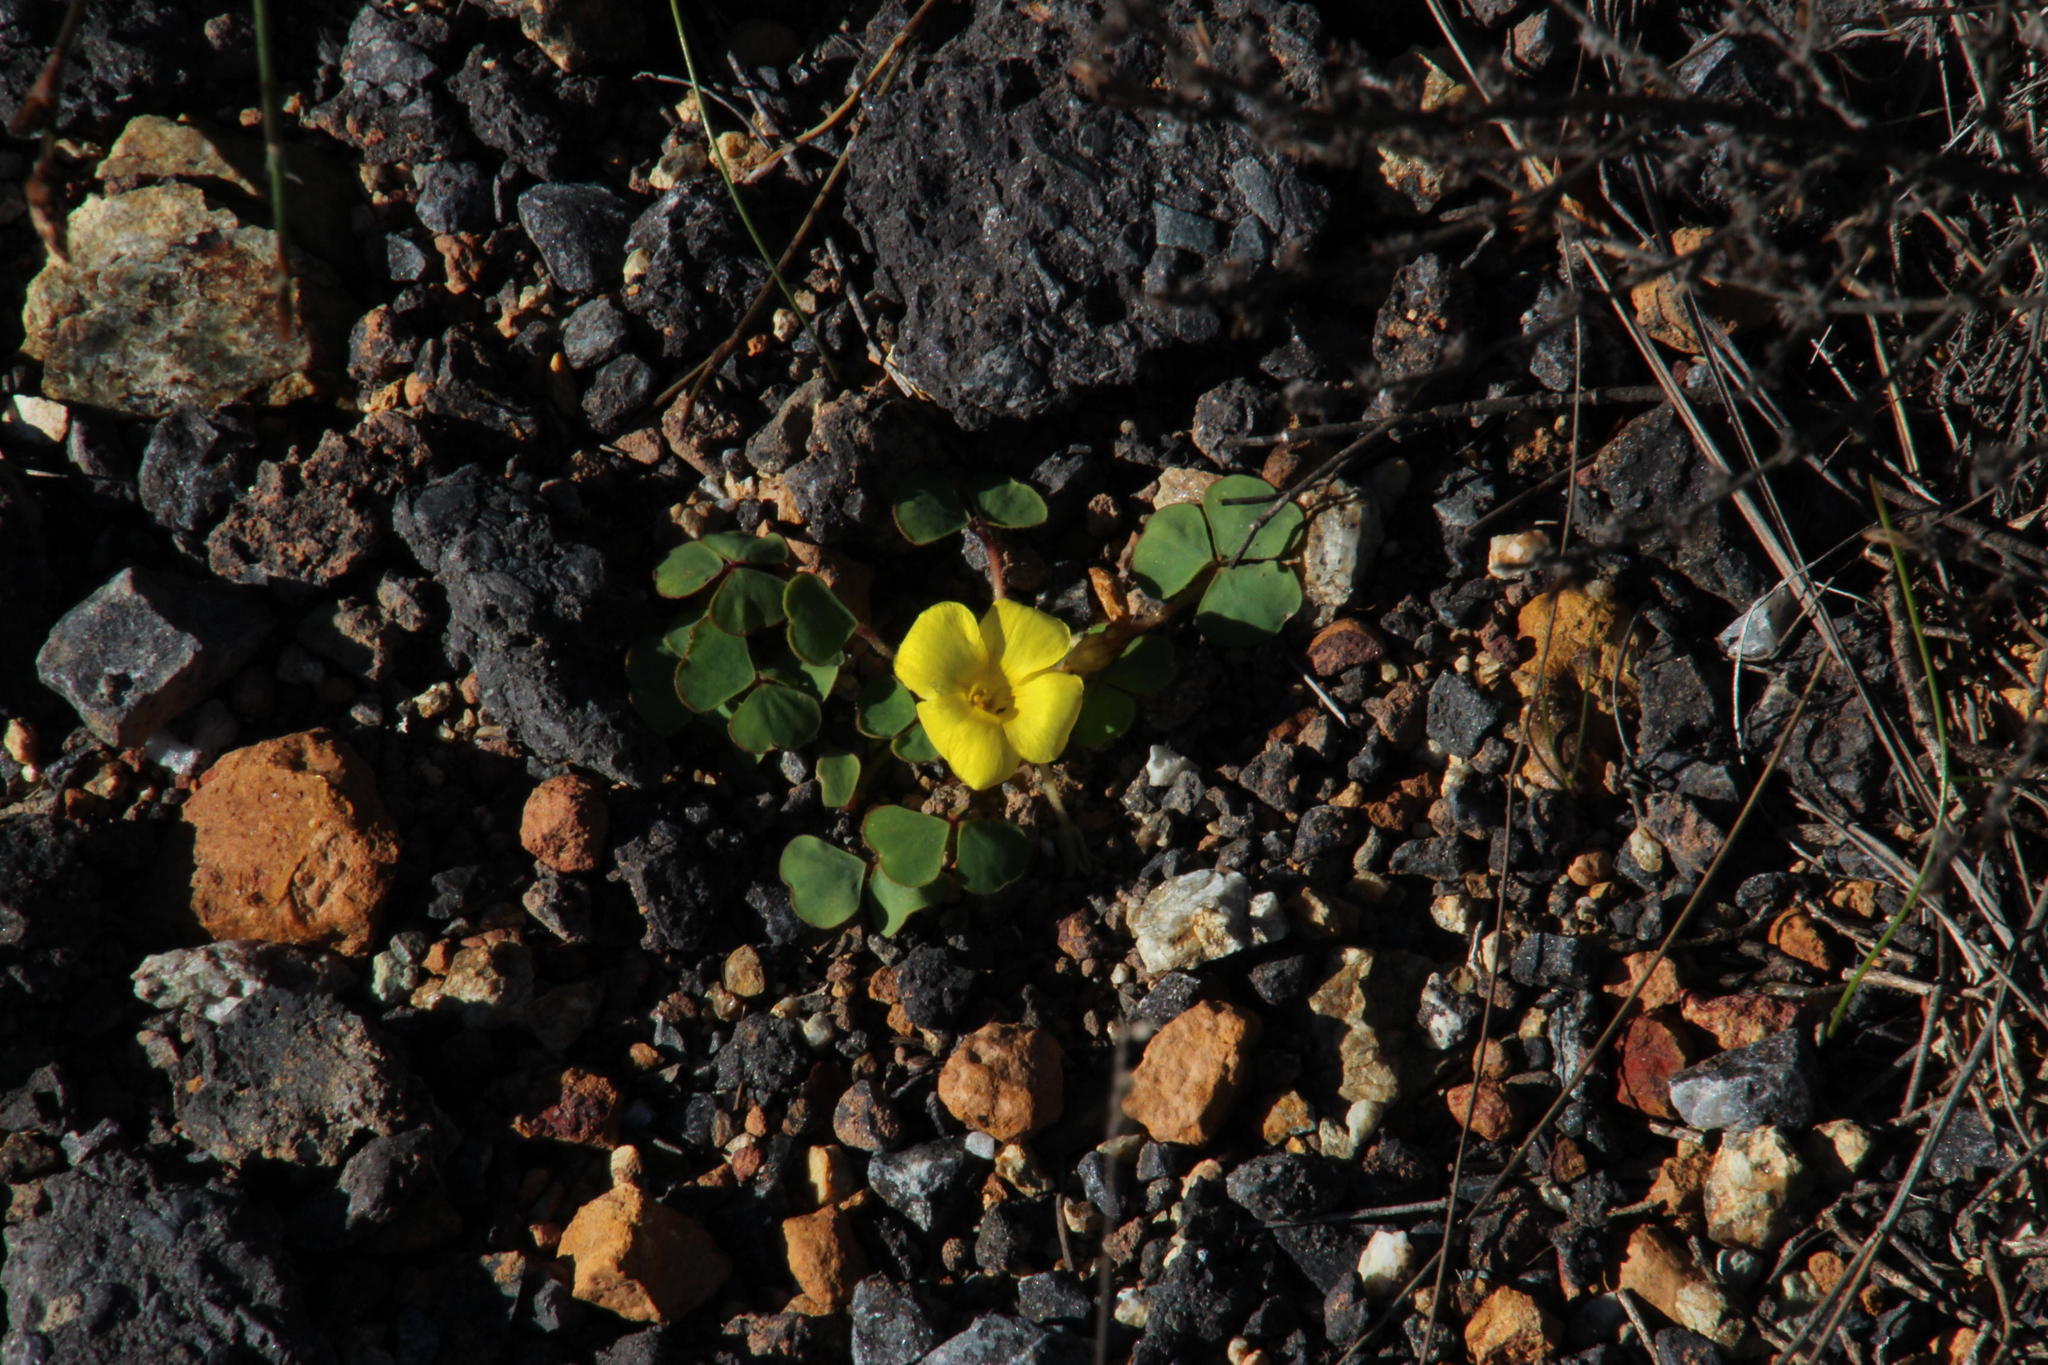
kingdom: Plantae
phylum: Tracheophyta
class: Magnoliopsida
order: Oxalidales
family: Oxalidaceae
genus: Oxalis
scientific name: Oxalis luteola
